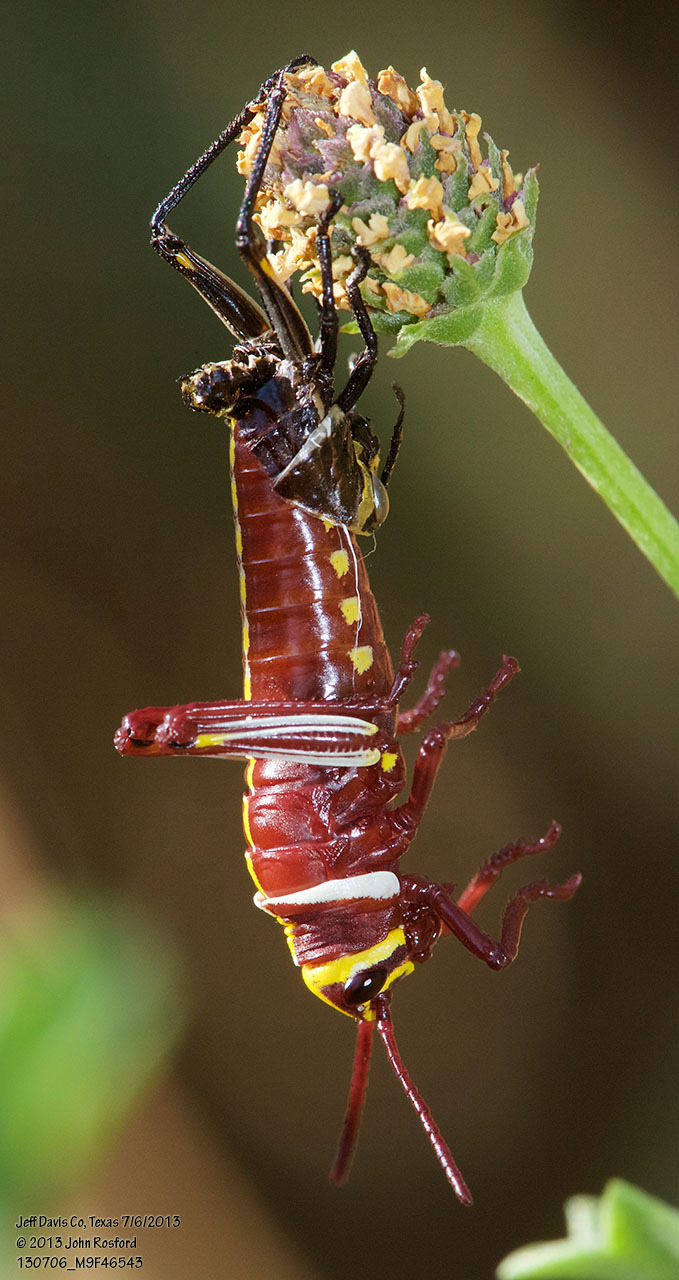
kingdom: Animalia
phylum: Arthropoda
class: Insecta
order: Orthoptera
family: Romaleidae
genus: Romalea
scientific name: Romalea
